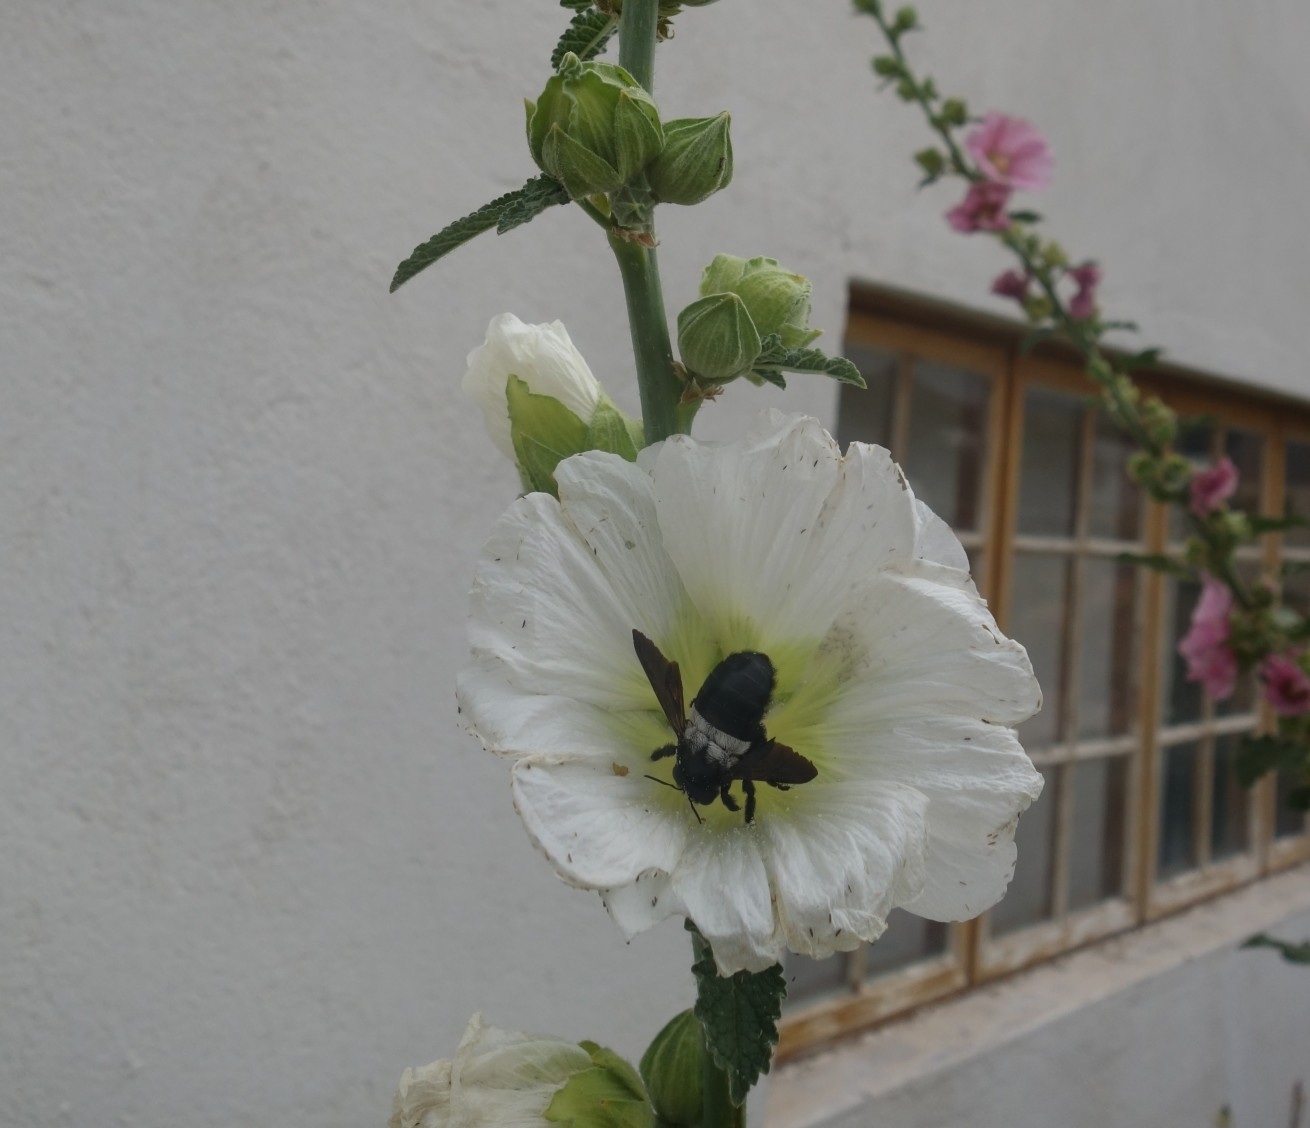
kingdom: Animalia
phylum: Arthropoda
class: Insecta
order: Hymenoptera
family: Apidae
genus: Xylocopa
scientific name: Xylocopa caffra
